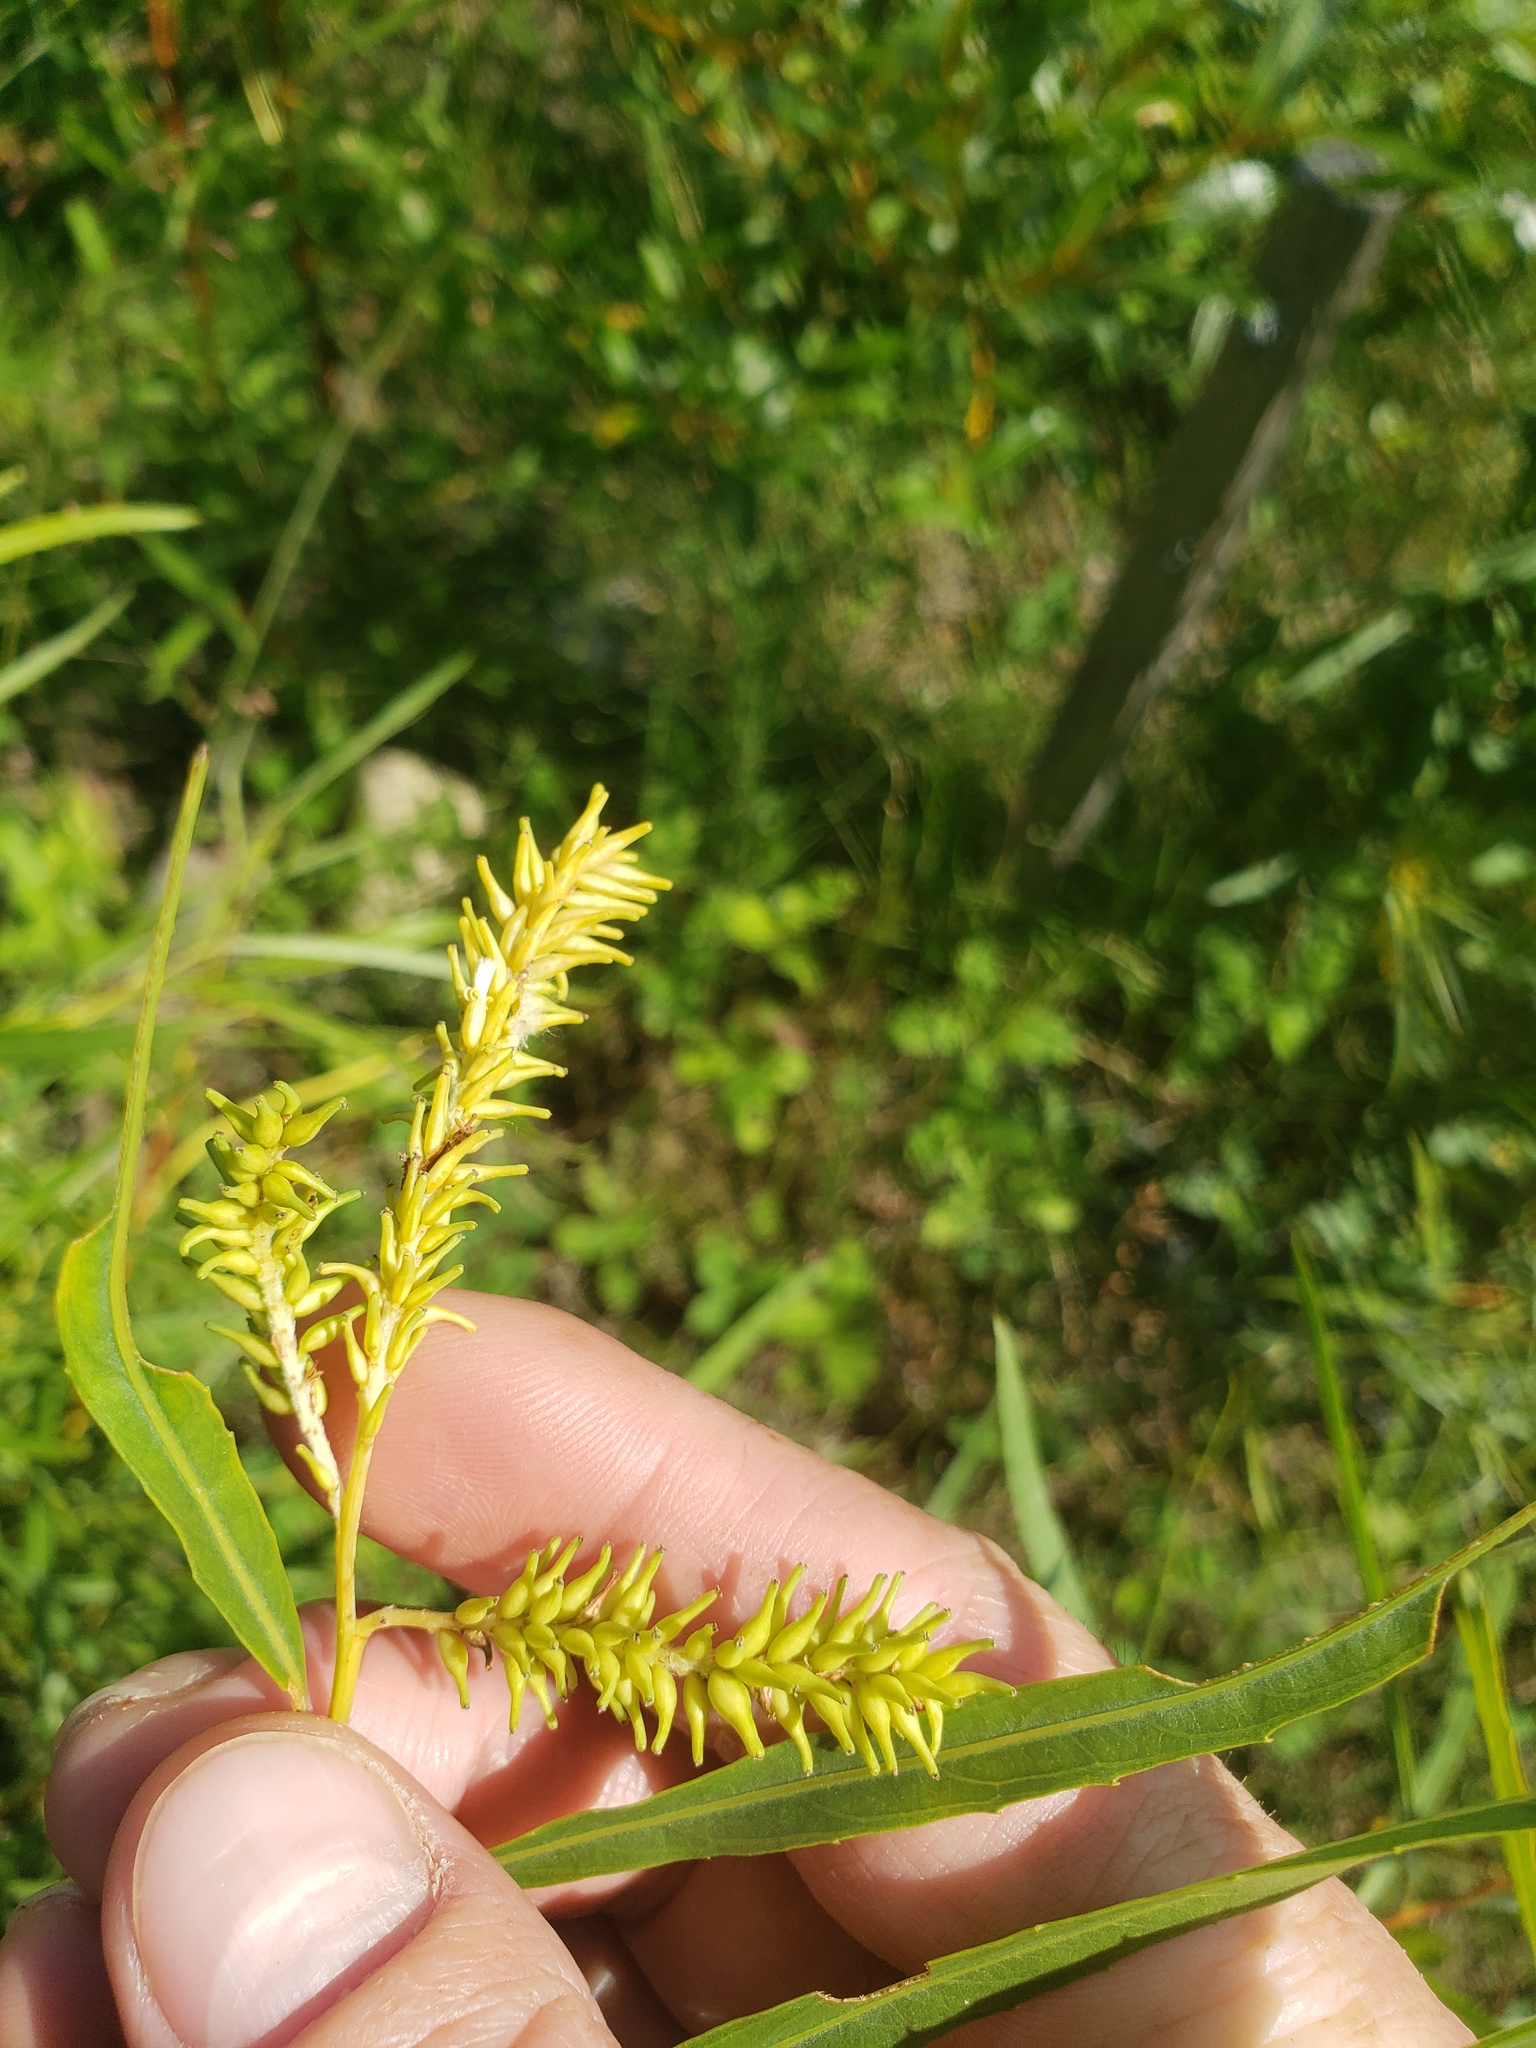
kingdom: Plantae
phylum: Tracheophyta
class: Magnoliopsida
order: Malpighiales
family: Salicaceae
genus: Salix
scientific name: Salix interior
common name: Sandbar willow
